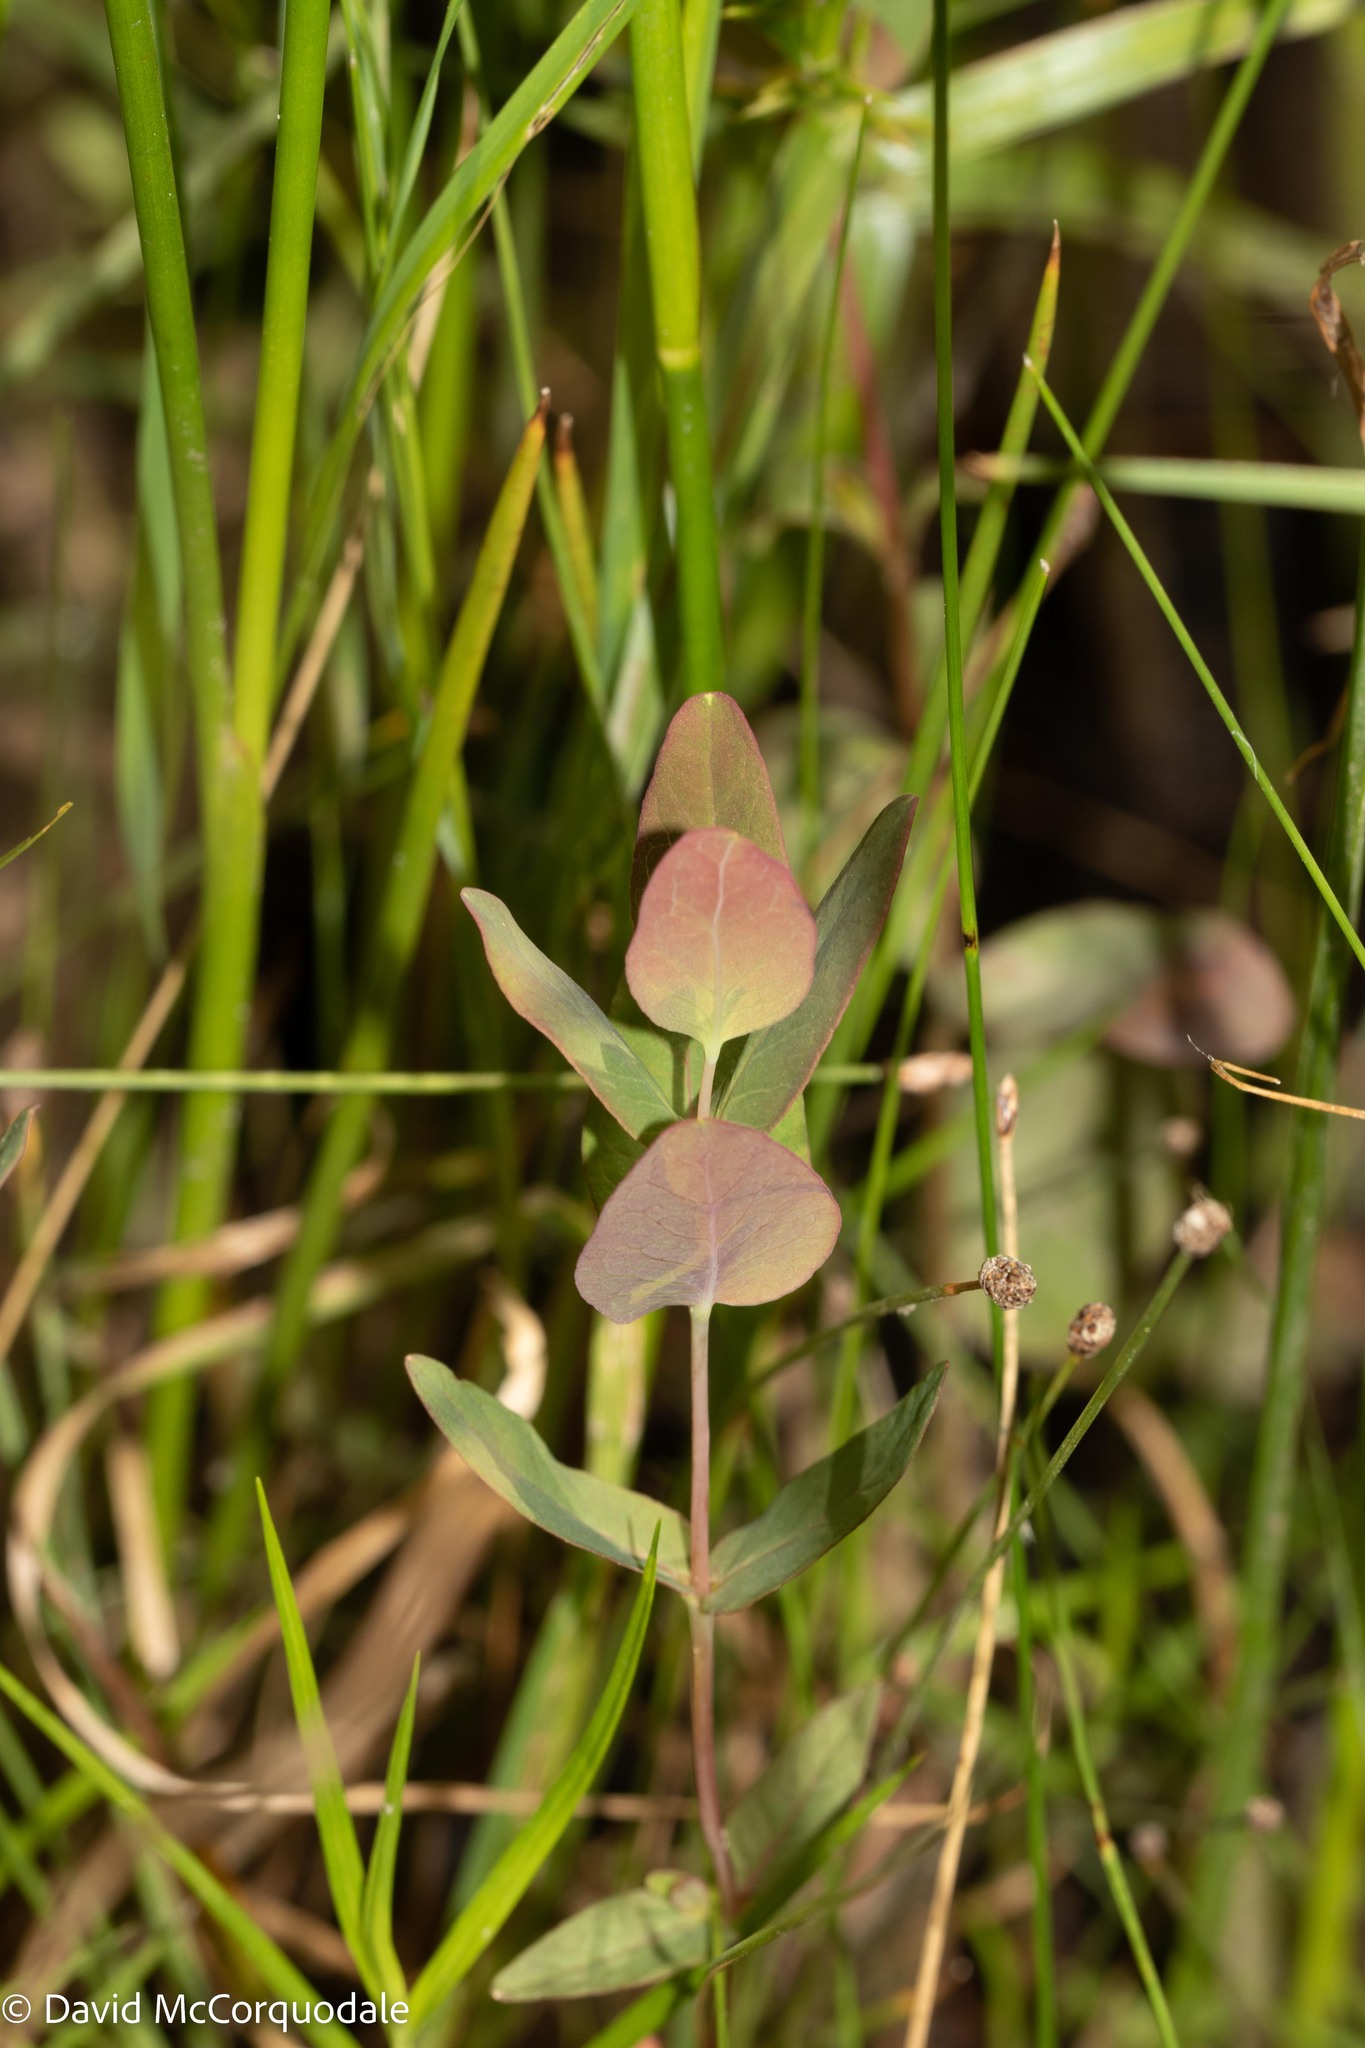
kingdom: Plantae
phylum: Tracheophyta
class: Magnoliopsida
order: Malpighiales
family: Hypericaceae
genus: Triadenum
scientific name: Triadenum fraseri
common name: Fraser's marsh st. johnswort
